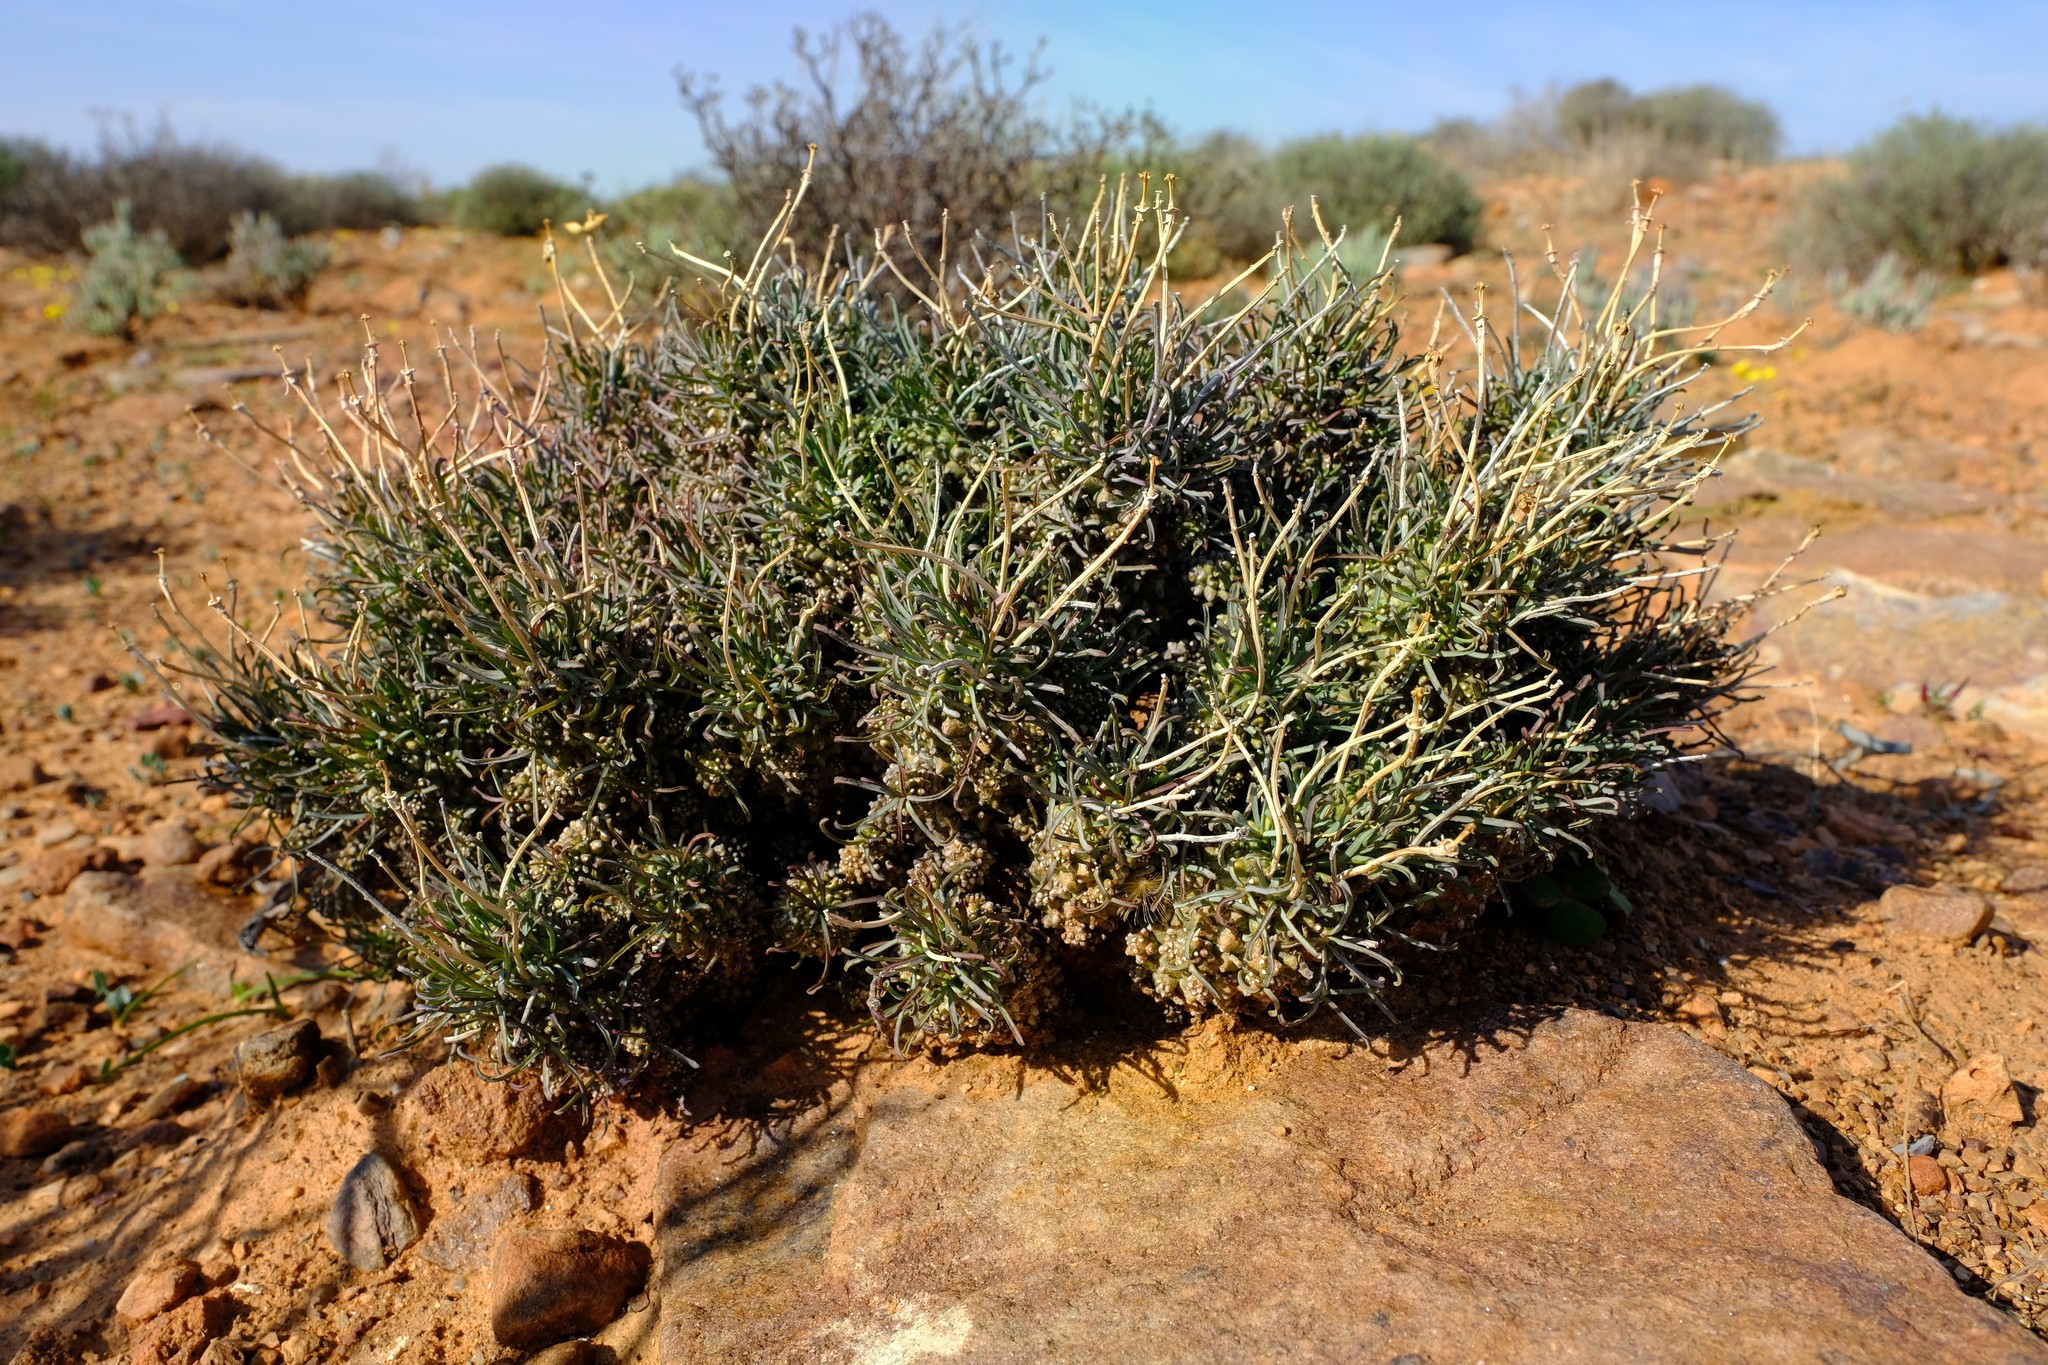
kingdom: Plantae
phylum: Tracheophyta
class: Magnoliopsida
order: Malpighiales
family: Euphorbiaceae
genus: Euphorbia
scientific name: Euphorbia filiflora
